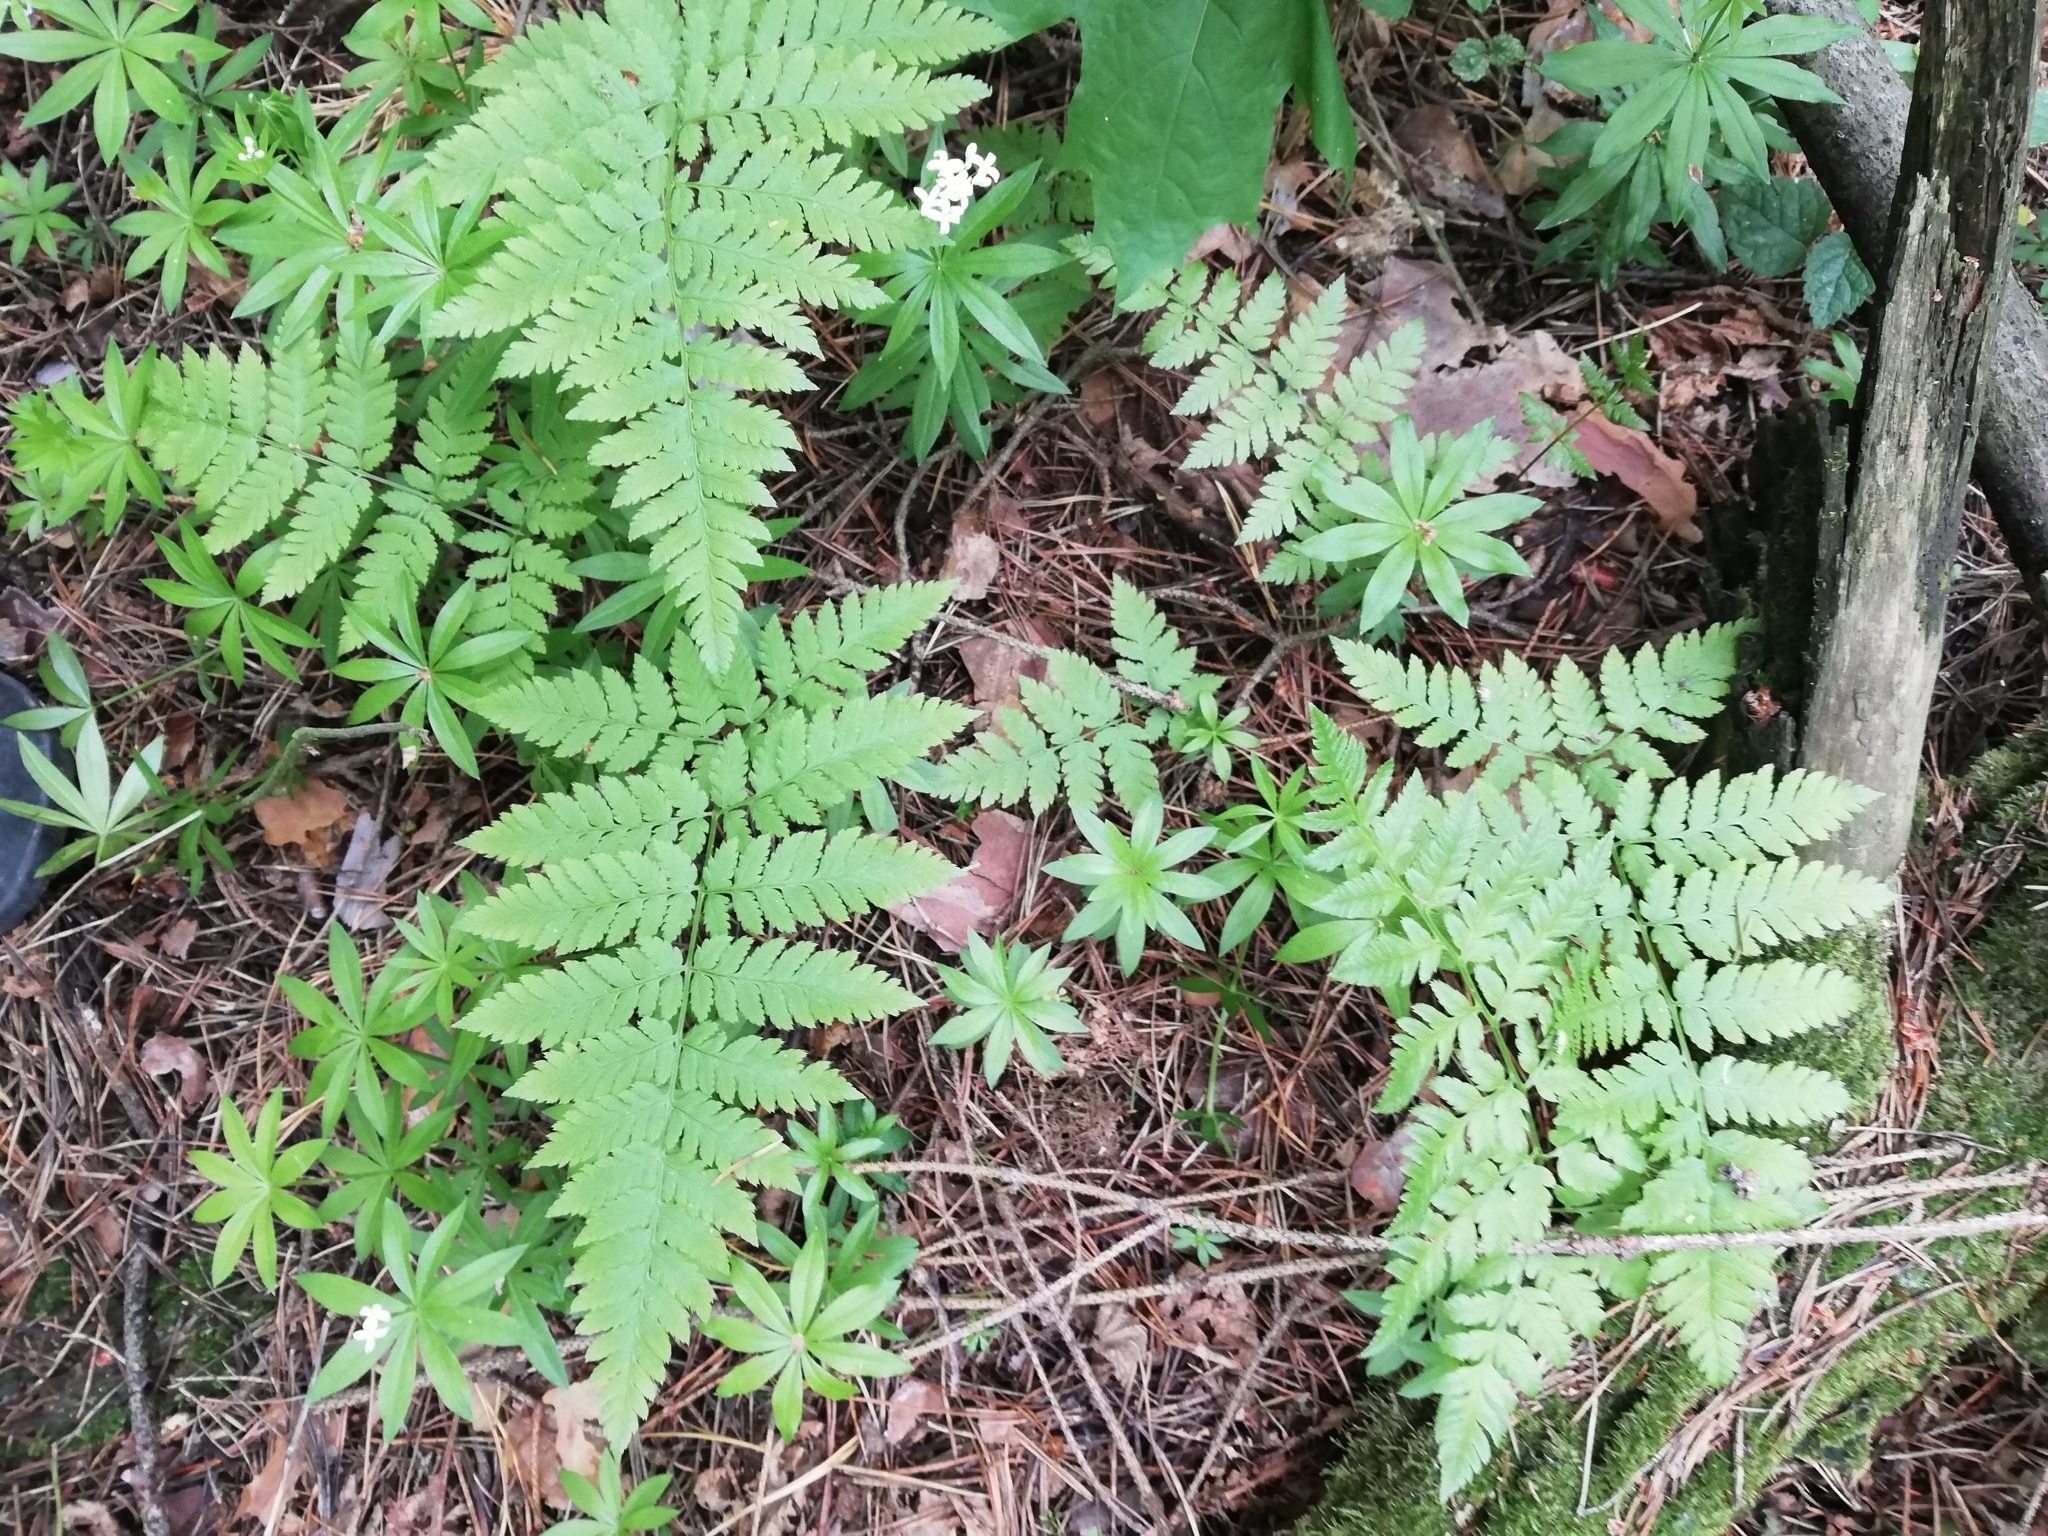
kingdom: Plantae
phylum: Tracheophyta
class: Polypodiopsida
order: Polypodiales
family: Dryopteridaceae
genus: Dryopteris
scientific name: Dryopteris carthusiana
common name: Narrow buckler-fern
